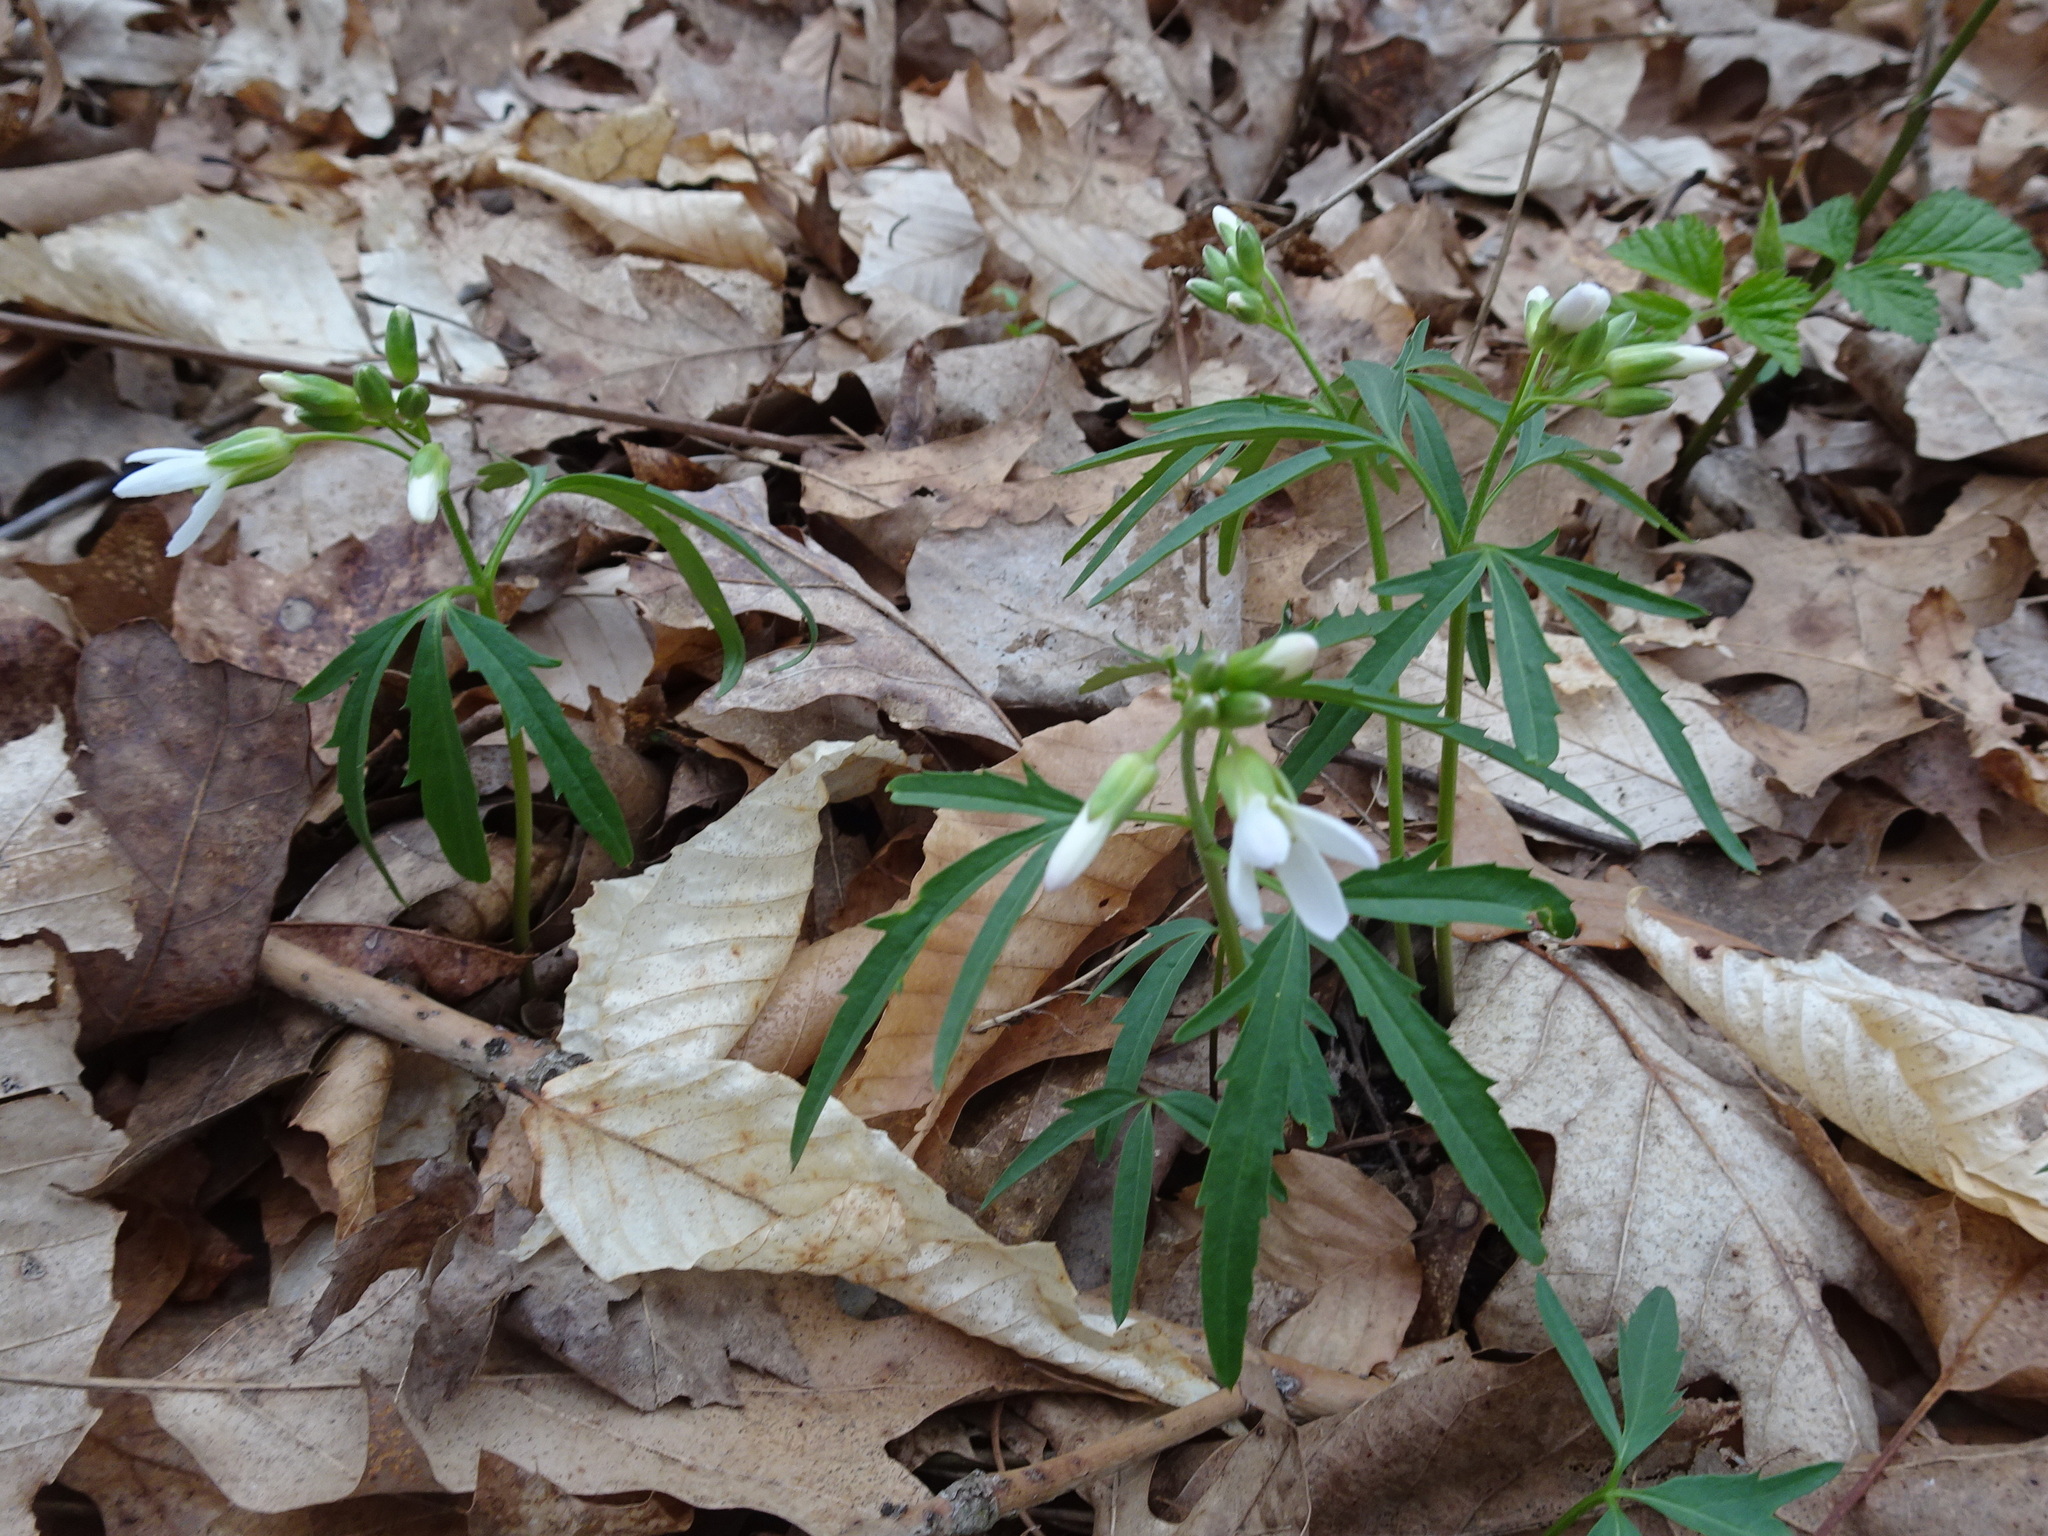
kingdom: Plantae
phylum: Tracheophyta
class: Magnoliopsida
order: Brassicales
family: Brassicaceae
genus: Cardamine
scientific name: Cardamine concatenata
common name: Cut-leaf toothcup
